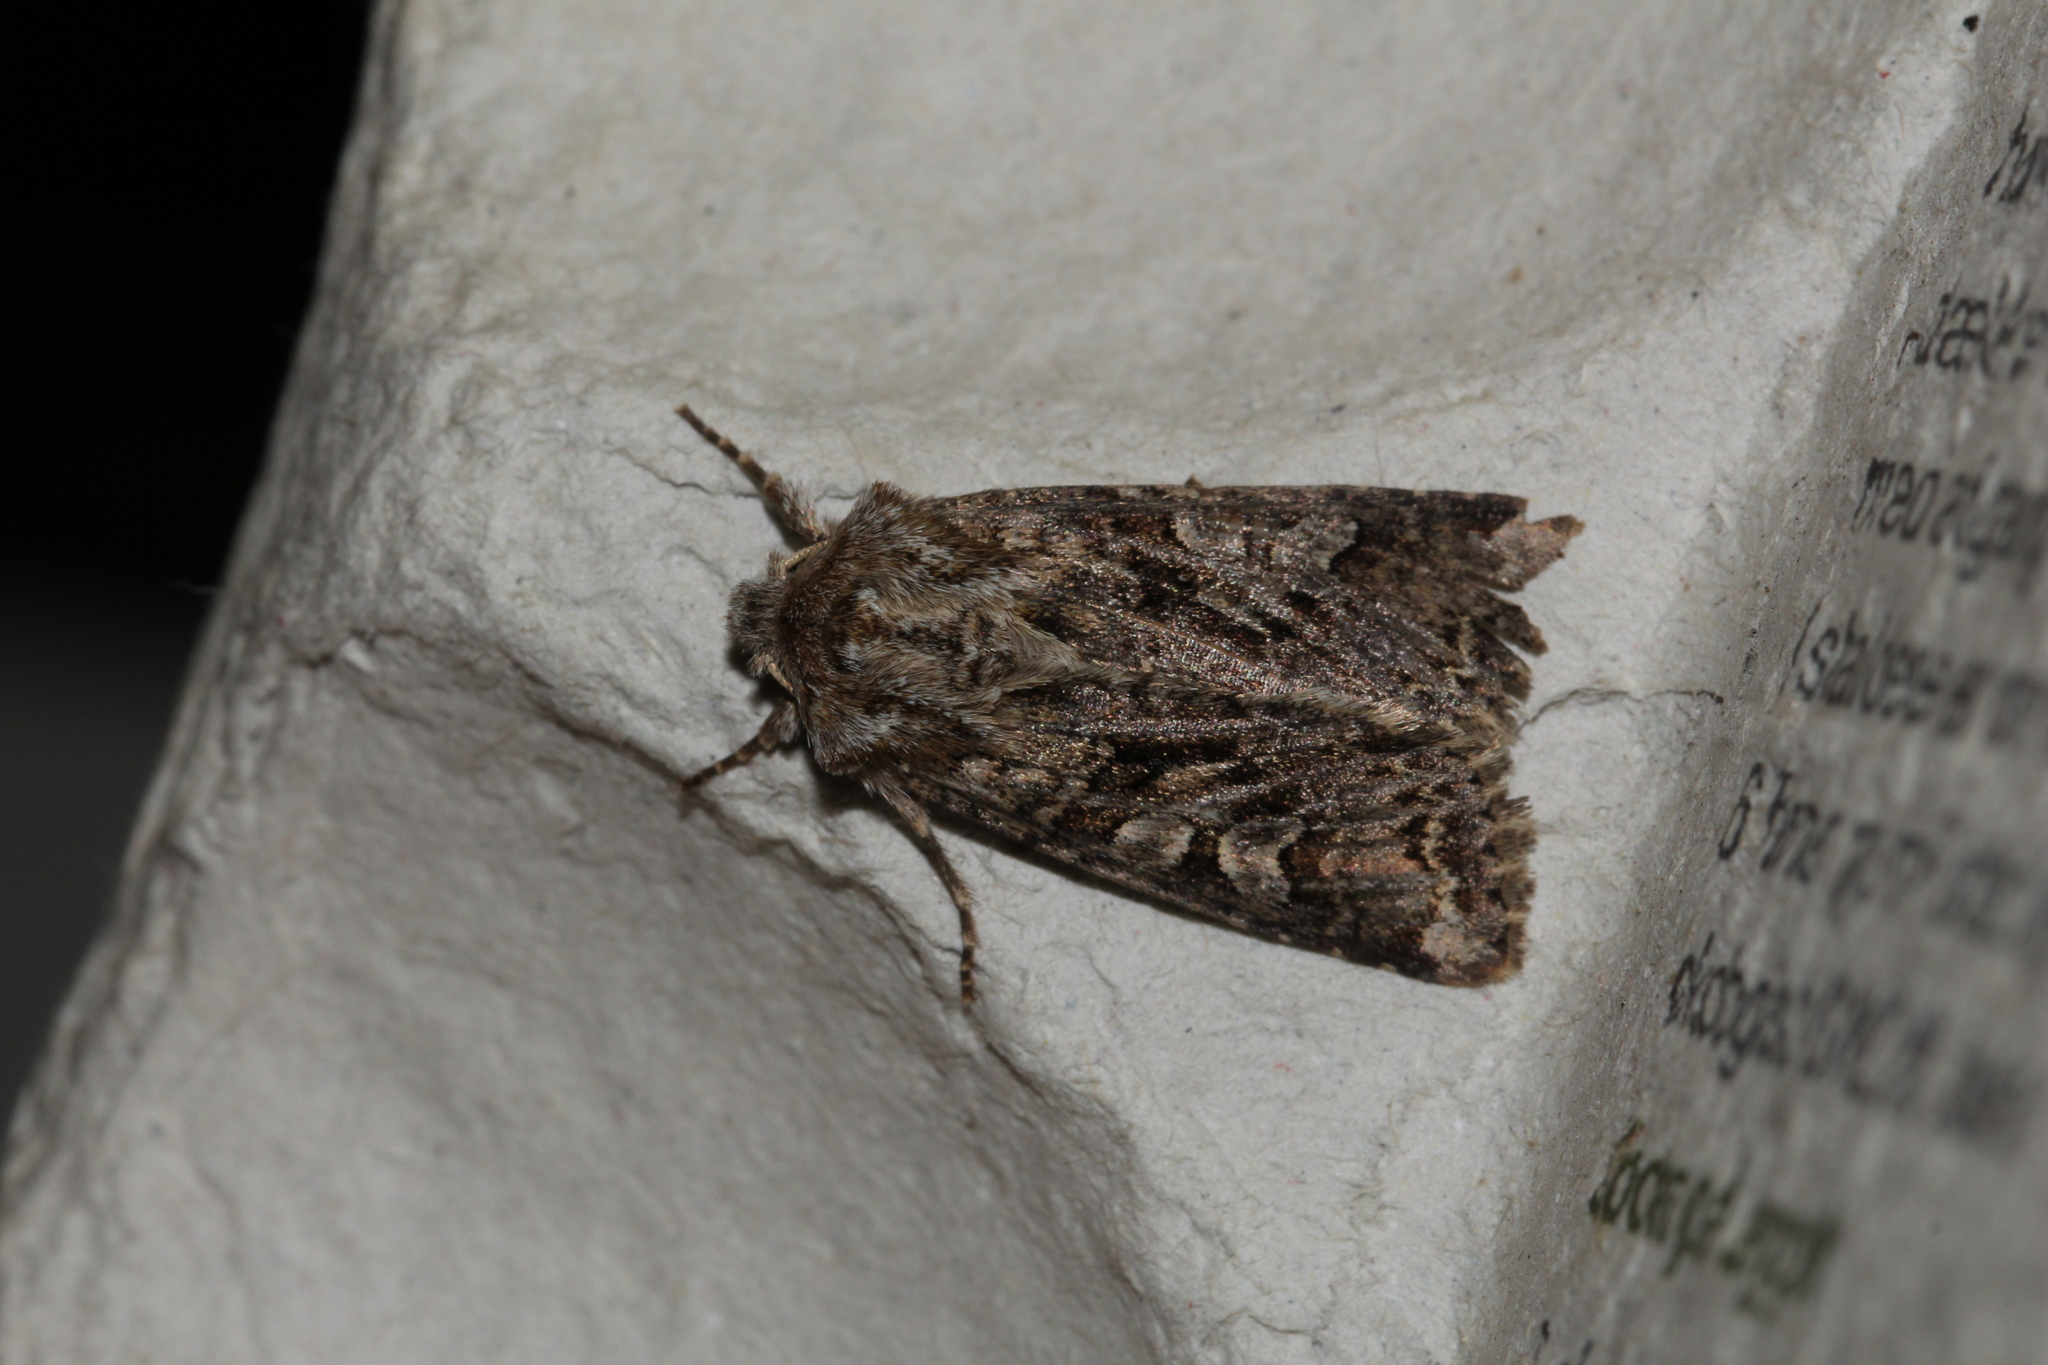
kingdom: Animalia
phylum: Arthropoda
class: Insecta
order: Lepidoptera
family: Noctuidae
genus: Hada
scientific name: Hada plebeja
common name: Shears
